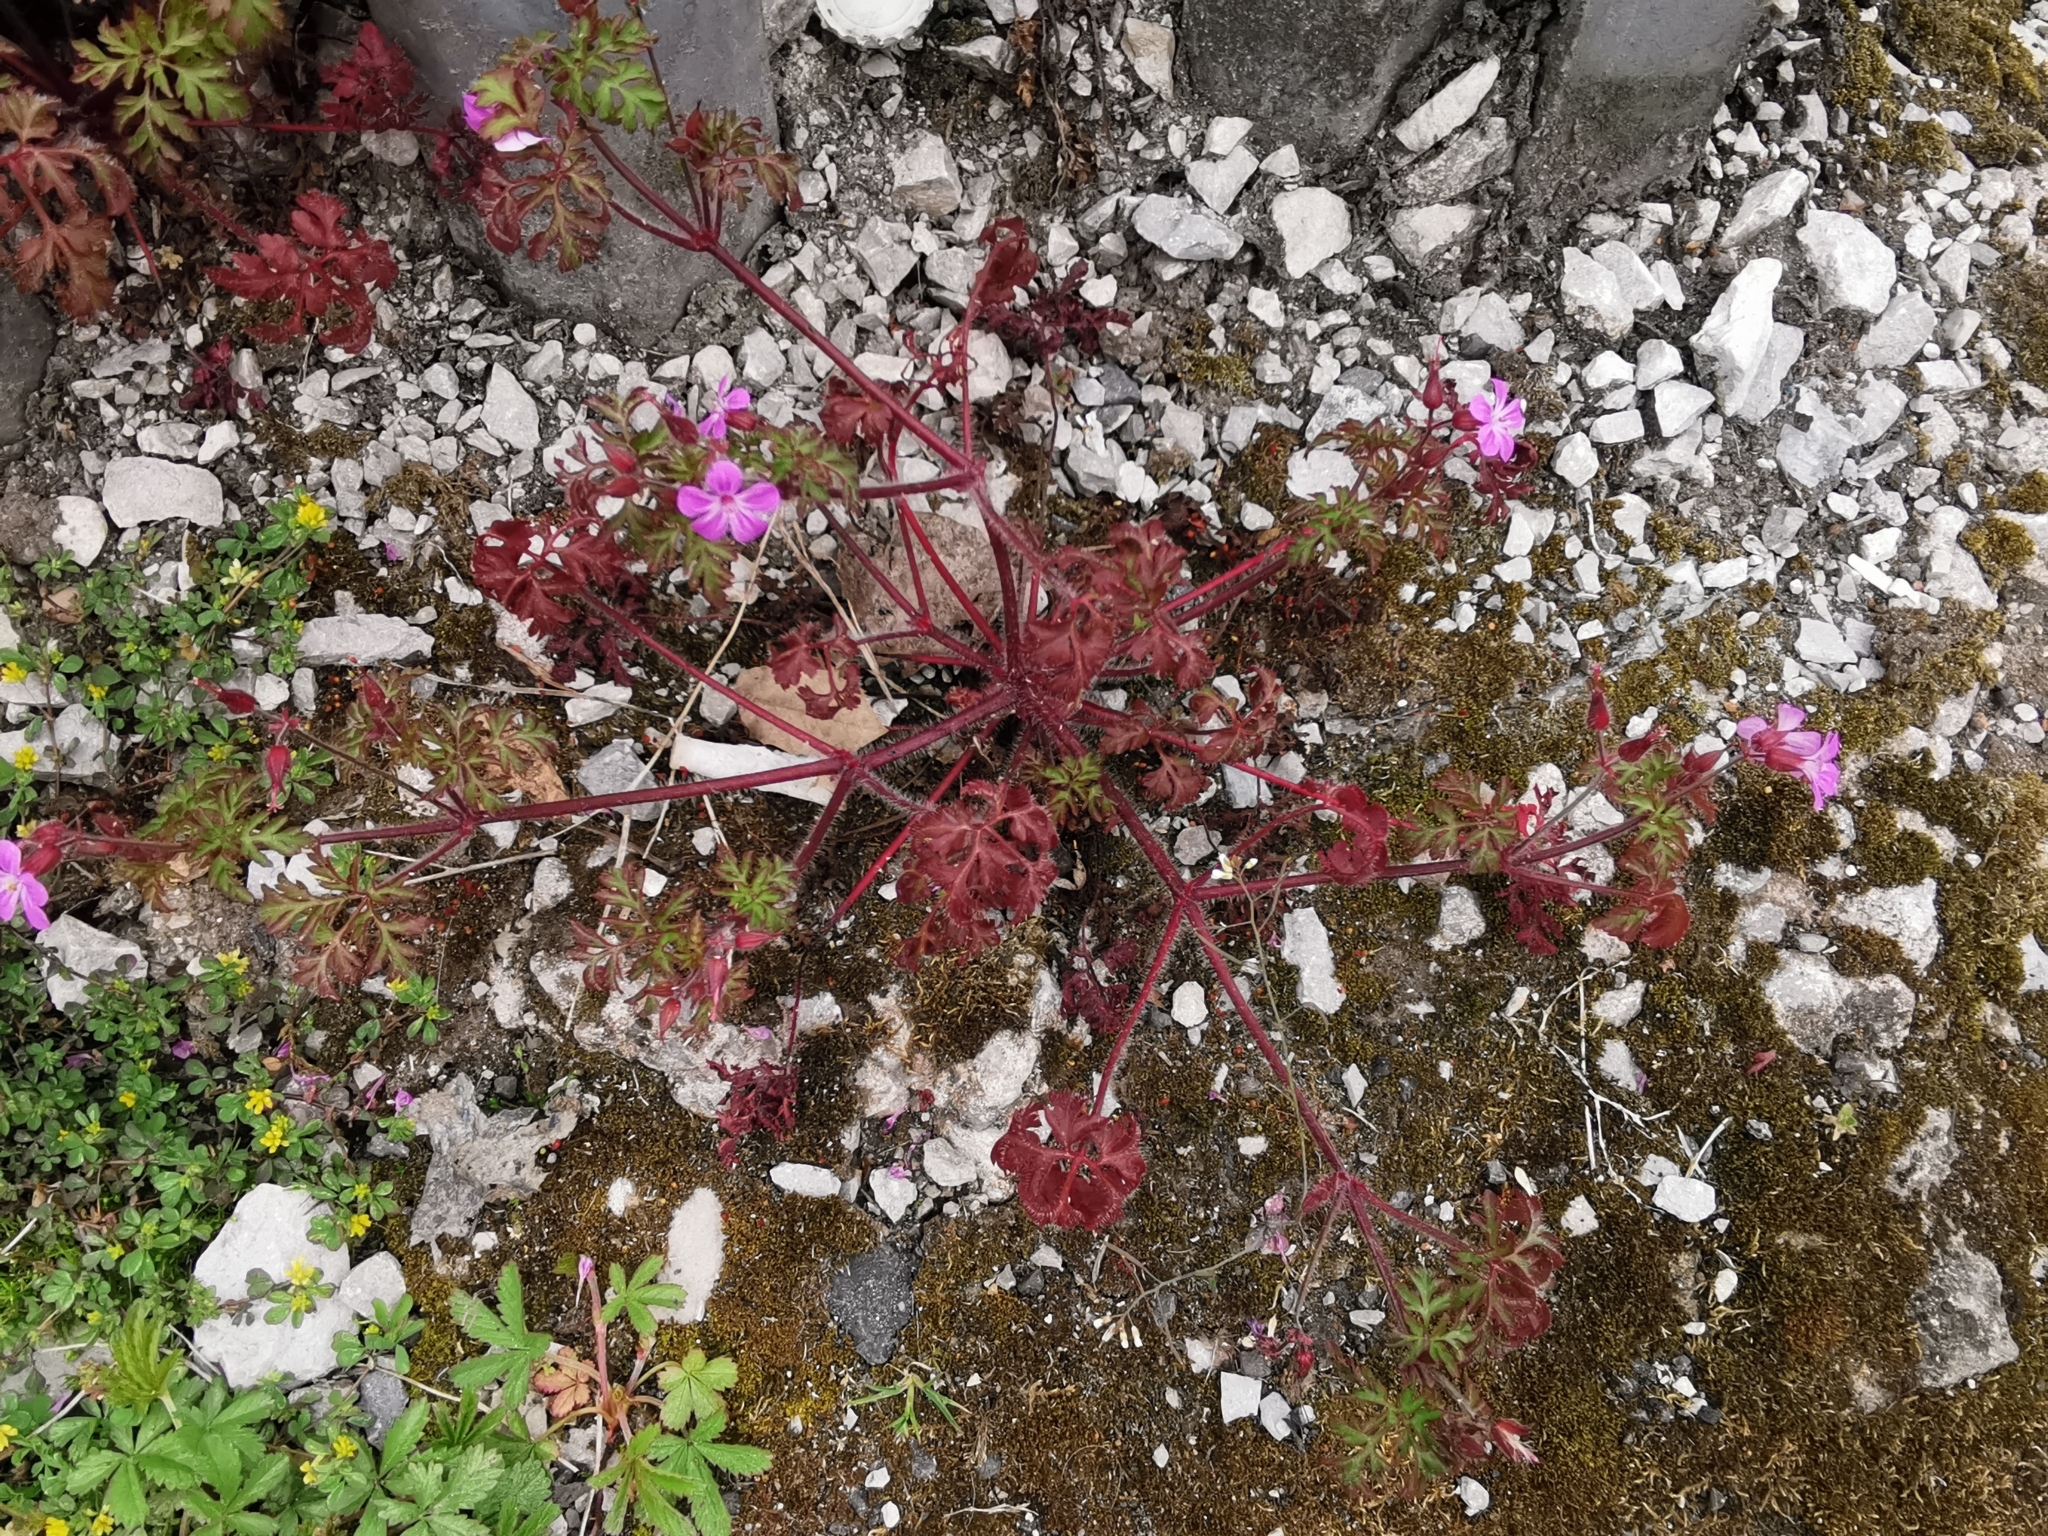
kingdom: Plantae
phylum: Tracheophyta
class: Magnoliopsida
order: Geraniales
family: Geraniaceae
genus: Geranium
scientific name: Geranium robertianum
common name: Herb-robert
